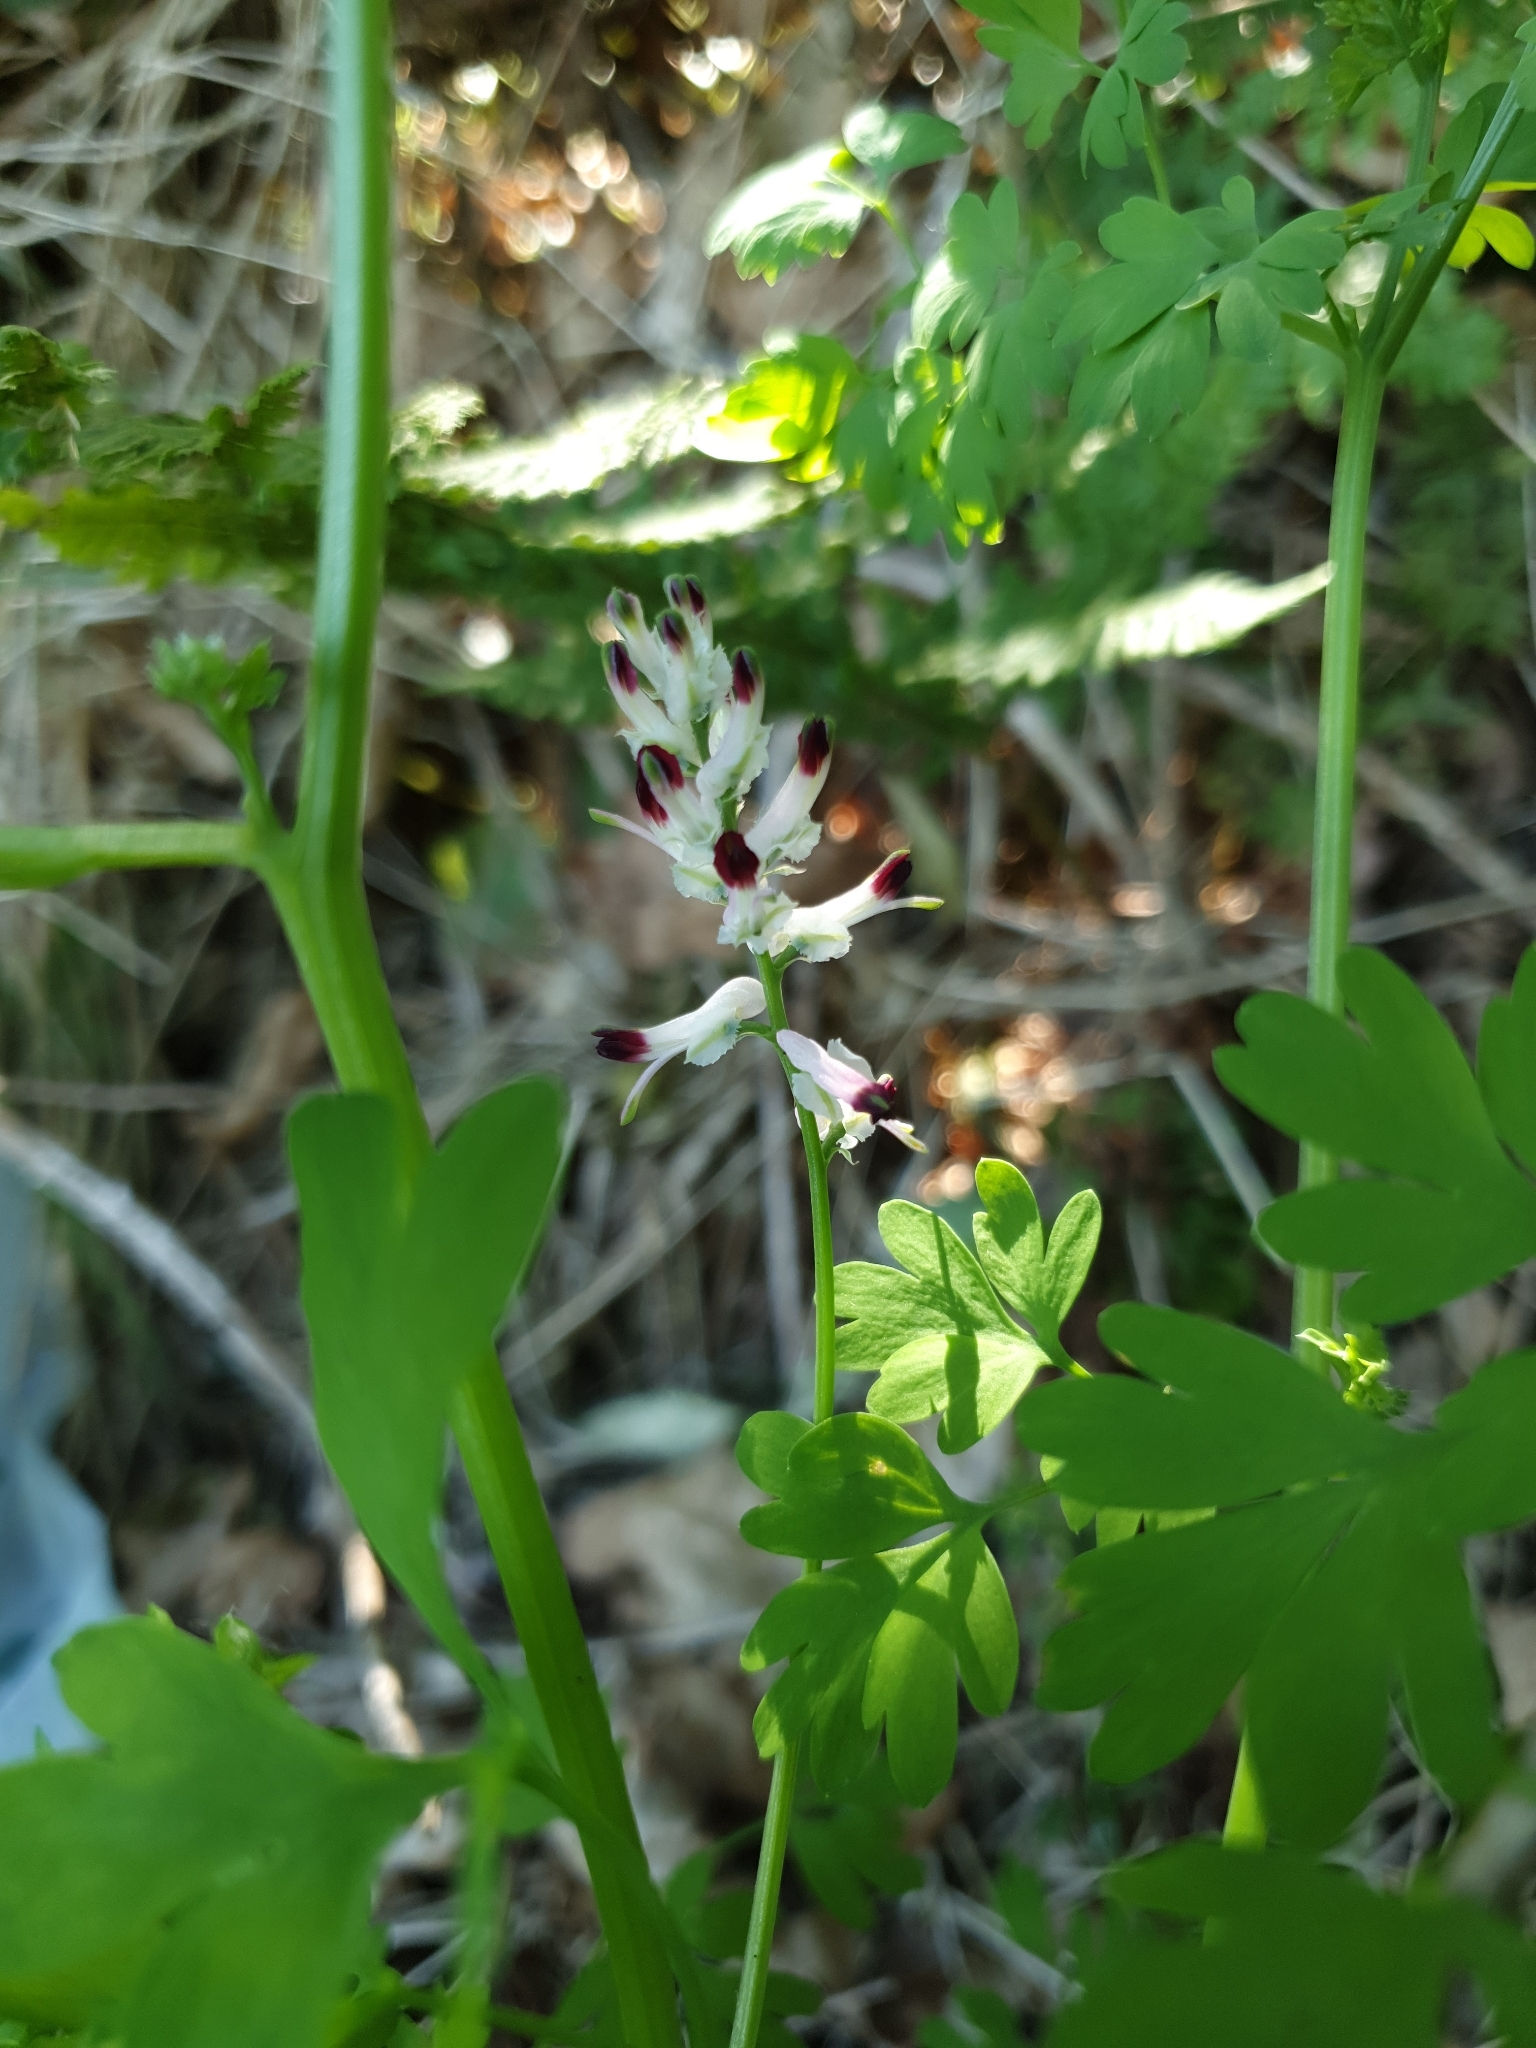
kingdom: Plantae
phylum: Tracheophyta
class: Magnoliopsida
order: Ranunculales
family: Papaveraceae
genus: Fumaria
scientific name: Fumaria capreolata
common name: White ramping-fumitory
